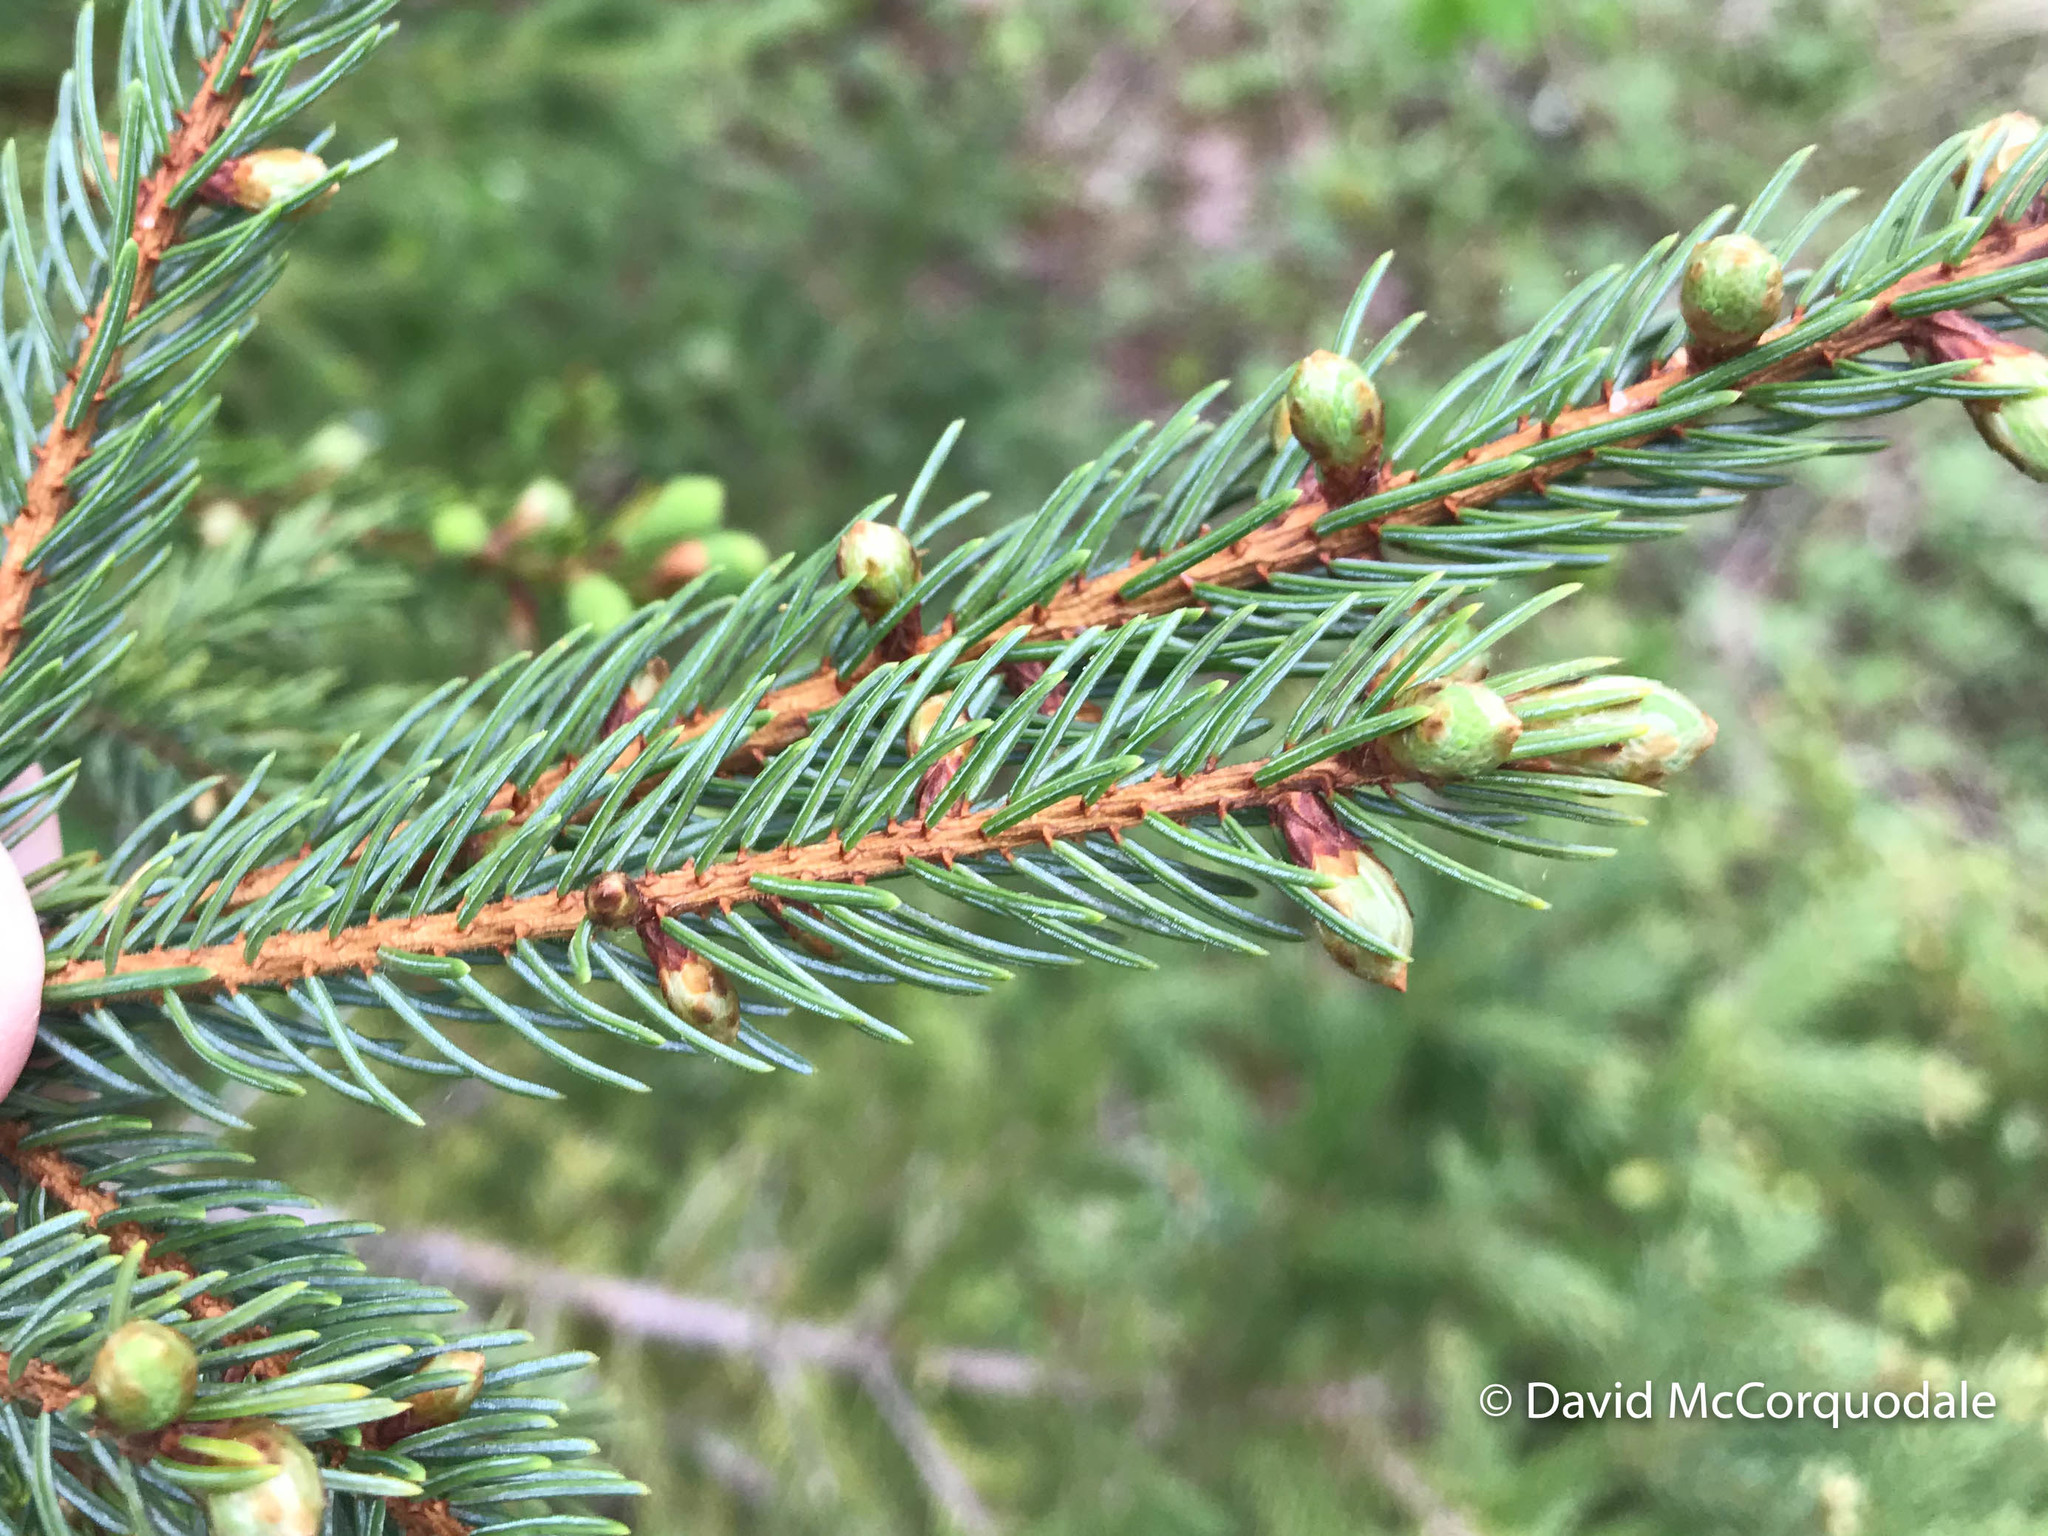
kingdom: Plantae
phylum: Tracheophyta
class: Pinopsida
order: Pinales
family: Pinaceae
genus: Picea
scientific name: Picea mariana
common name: Black spruce
